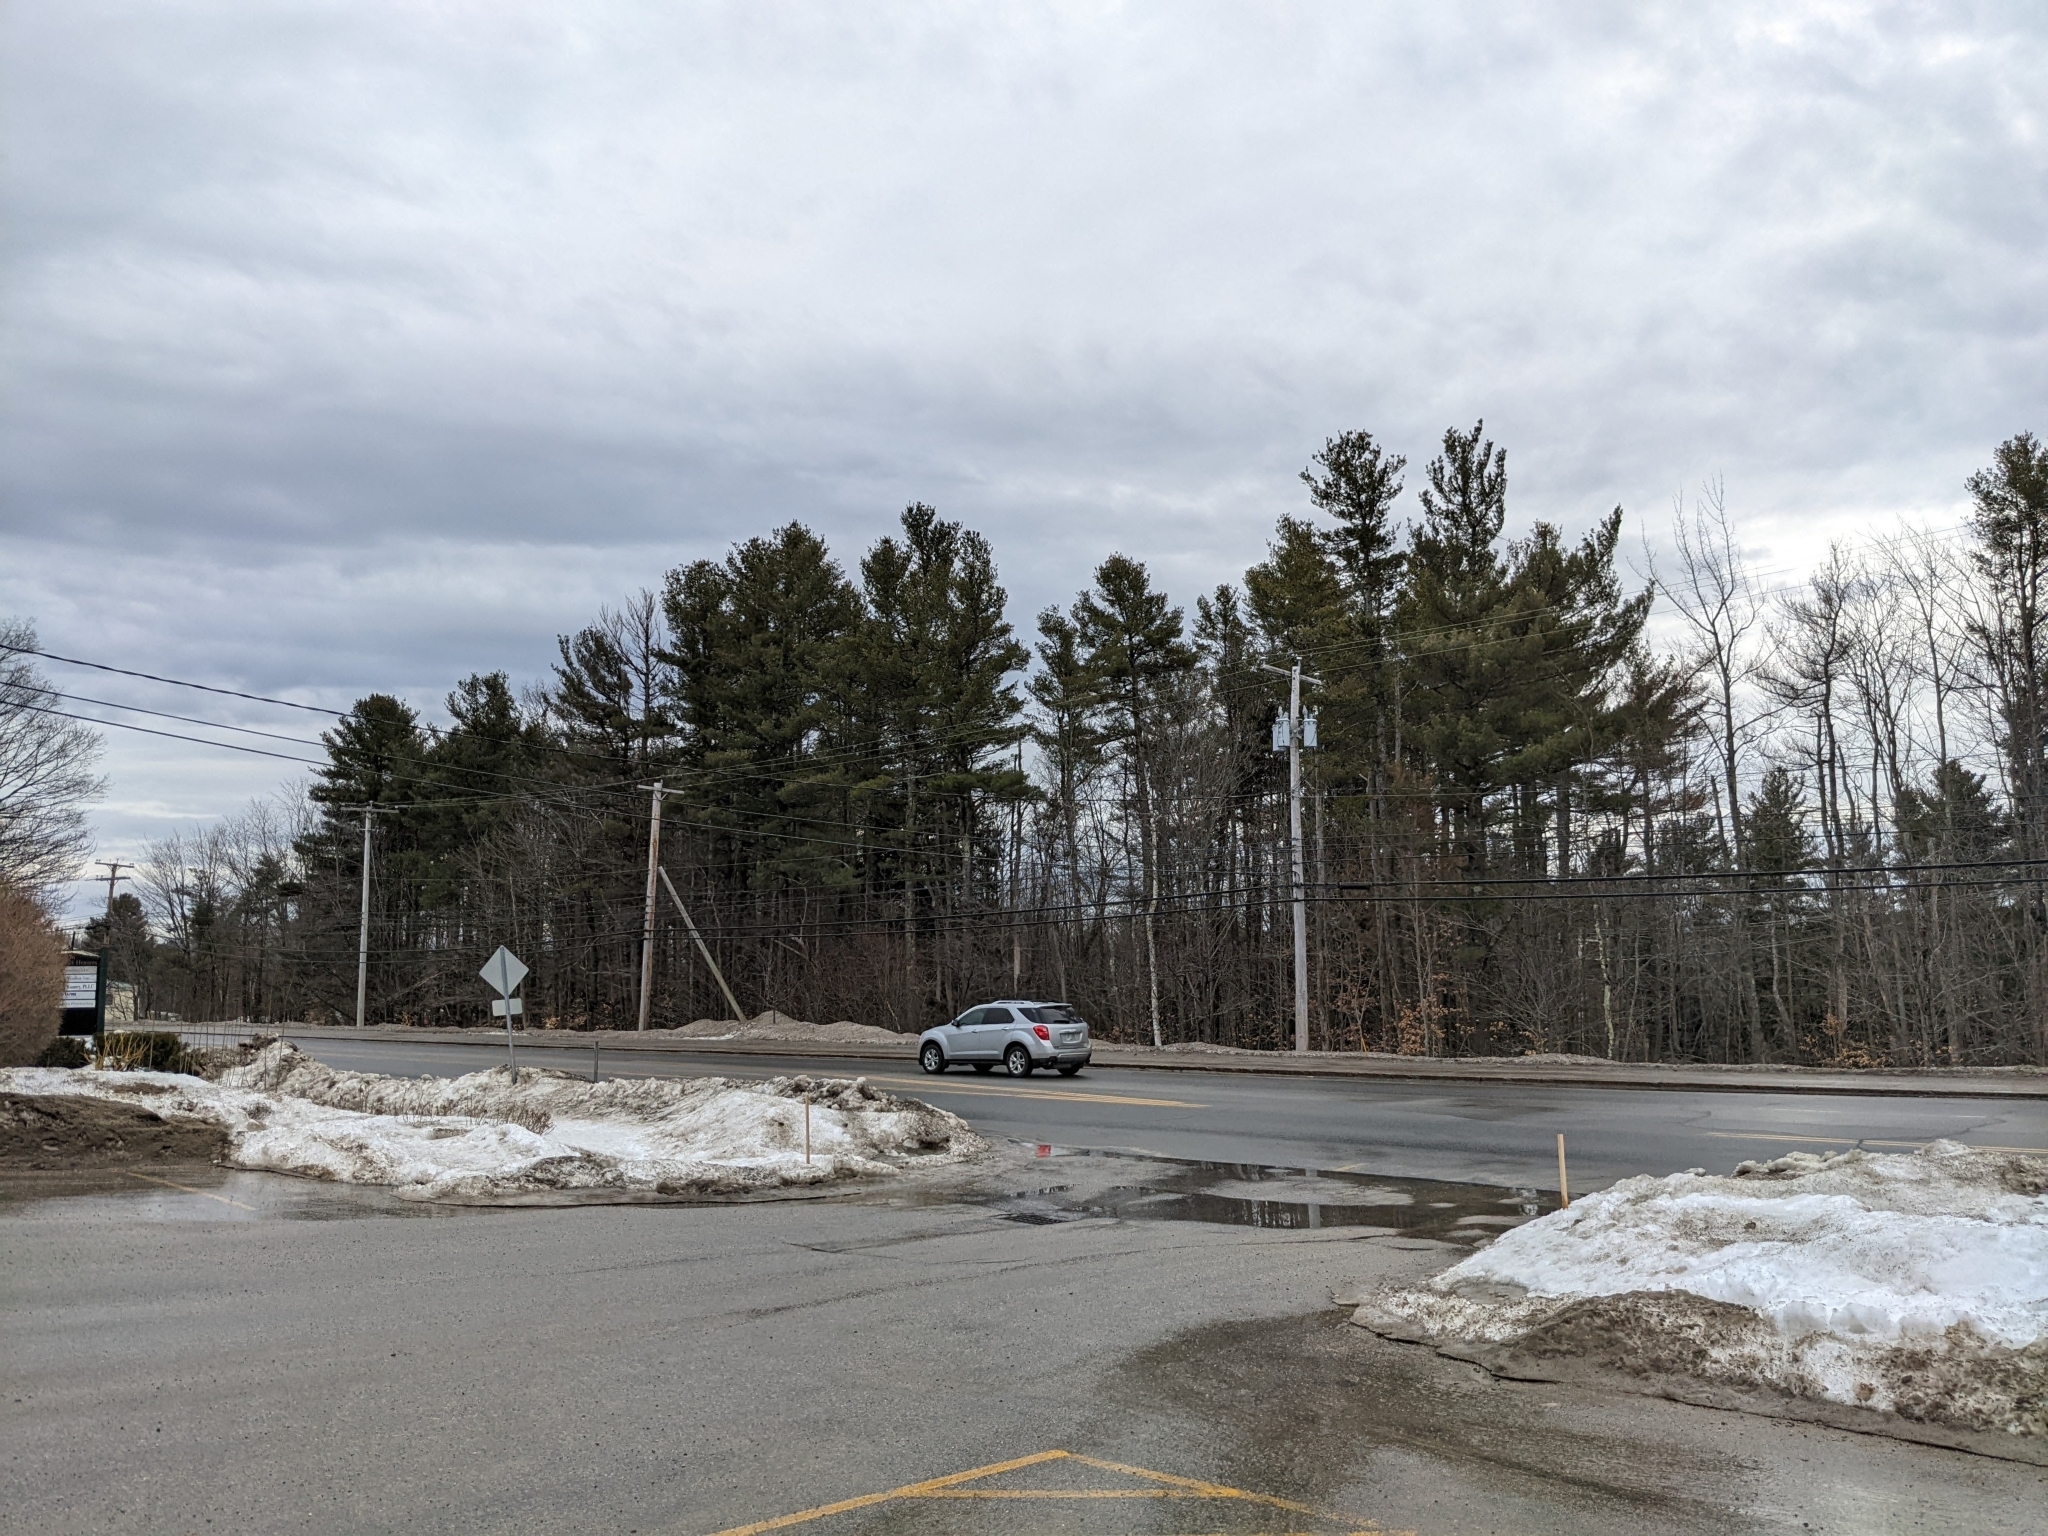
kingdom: Plantae
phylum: Tracheophyta
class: Pinopsida
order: Pinales
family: Pinaceae
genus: Pinus
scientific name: Pinus strobus
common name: Weymouth pine
